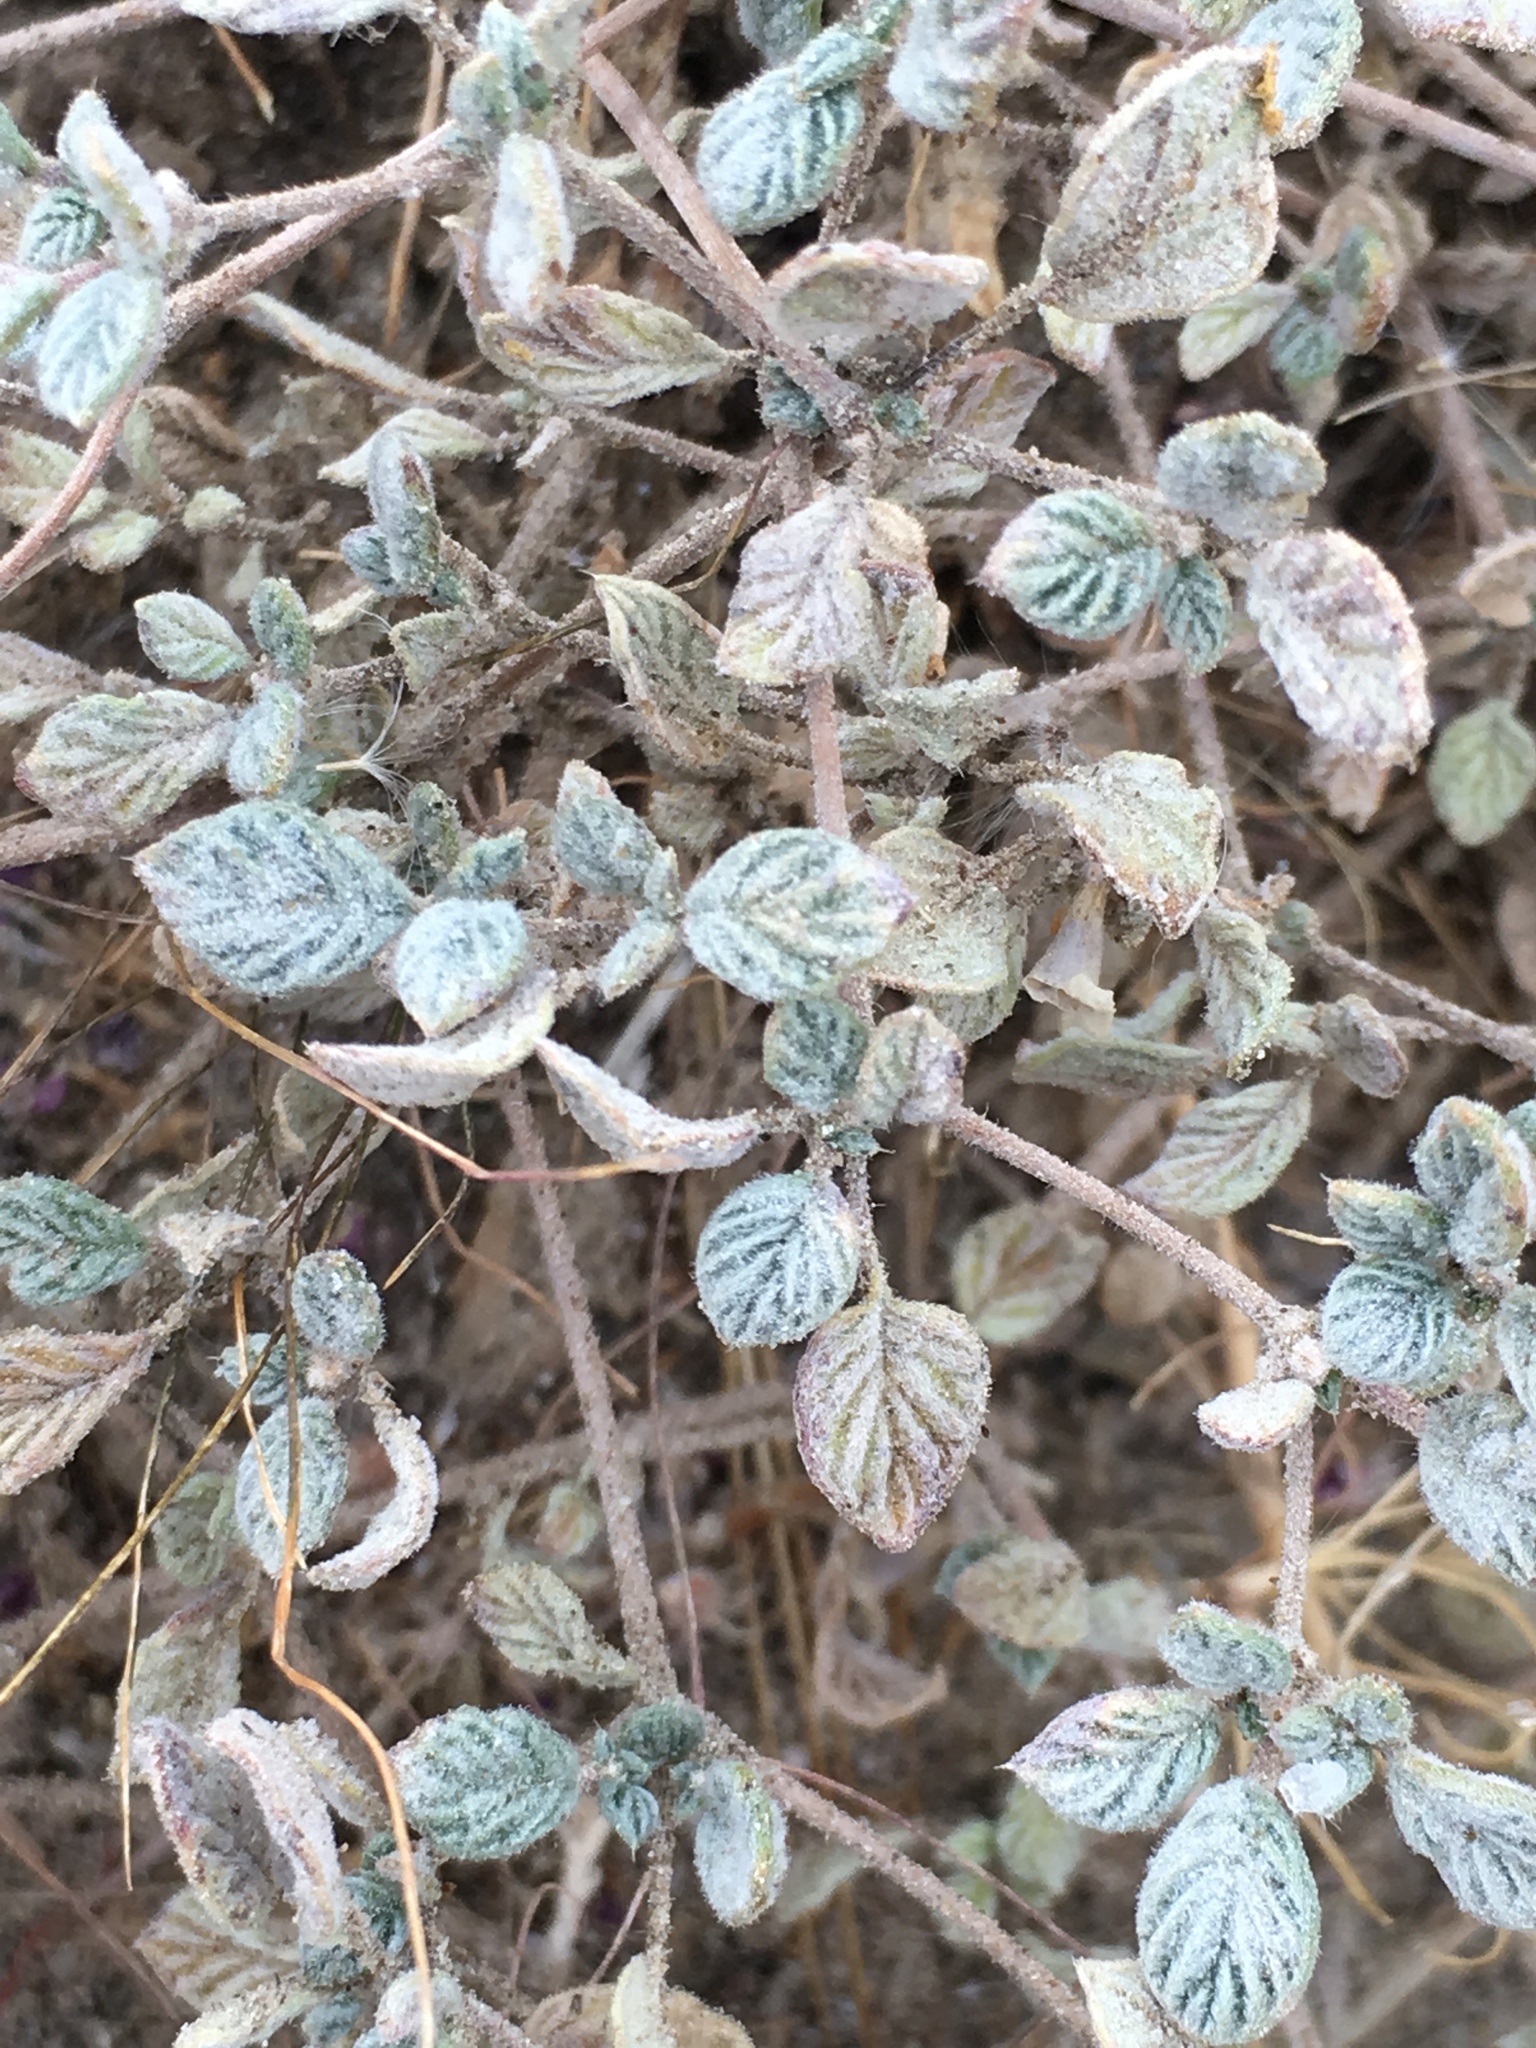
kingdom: Plantae
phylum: Tracheophyta
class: Magnoliopsida
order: Boraginales
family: Ehretiaceae
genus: Tiquilia
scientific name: Tiquilia plicata
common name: Fan-leaf tiquilia
